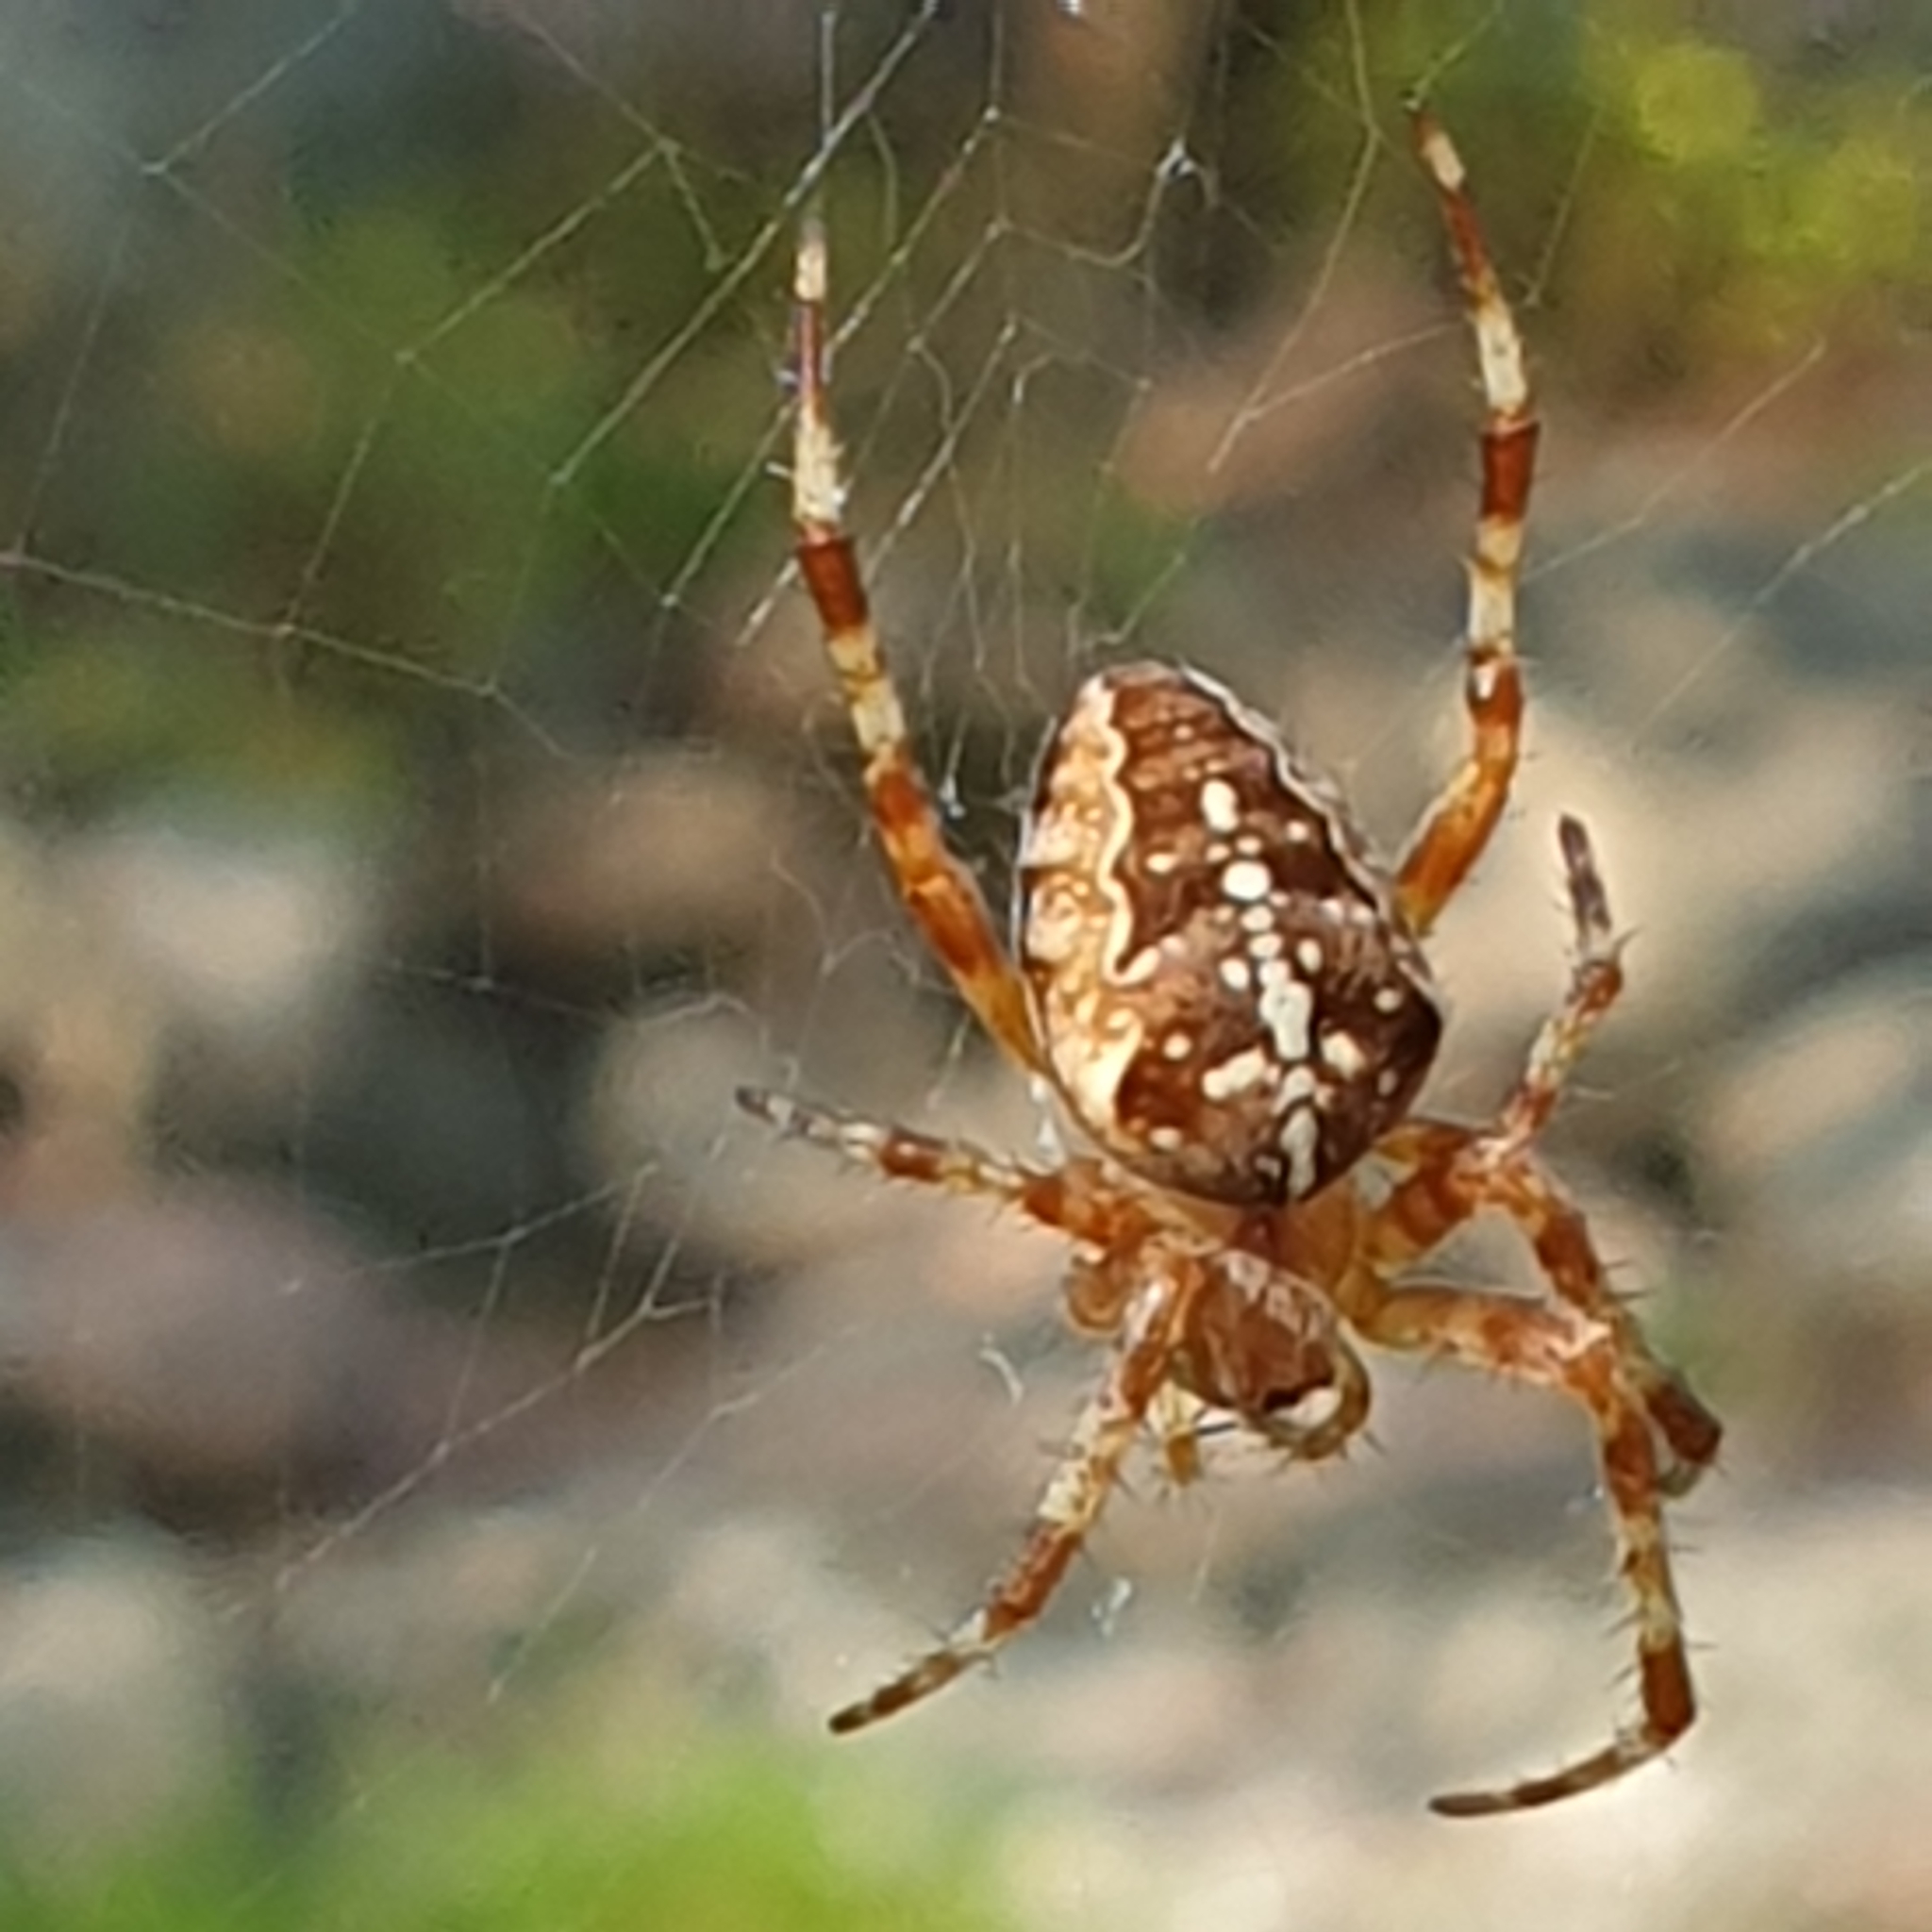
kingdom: Animalia
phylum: Arthropoda
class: Arachnida
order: Araneae
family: Araneidae
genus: Araneus
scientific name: Araneus diadematus
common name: Cross orbweaver
